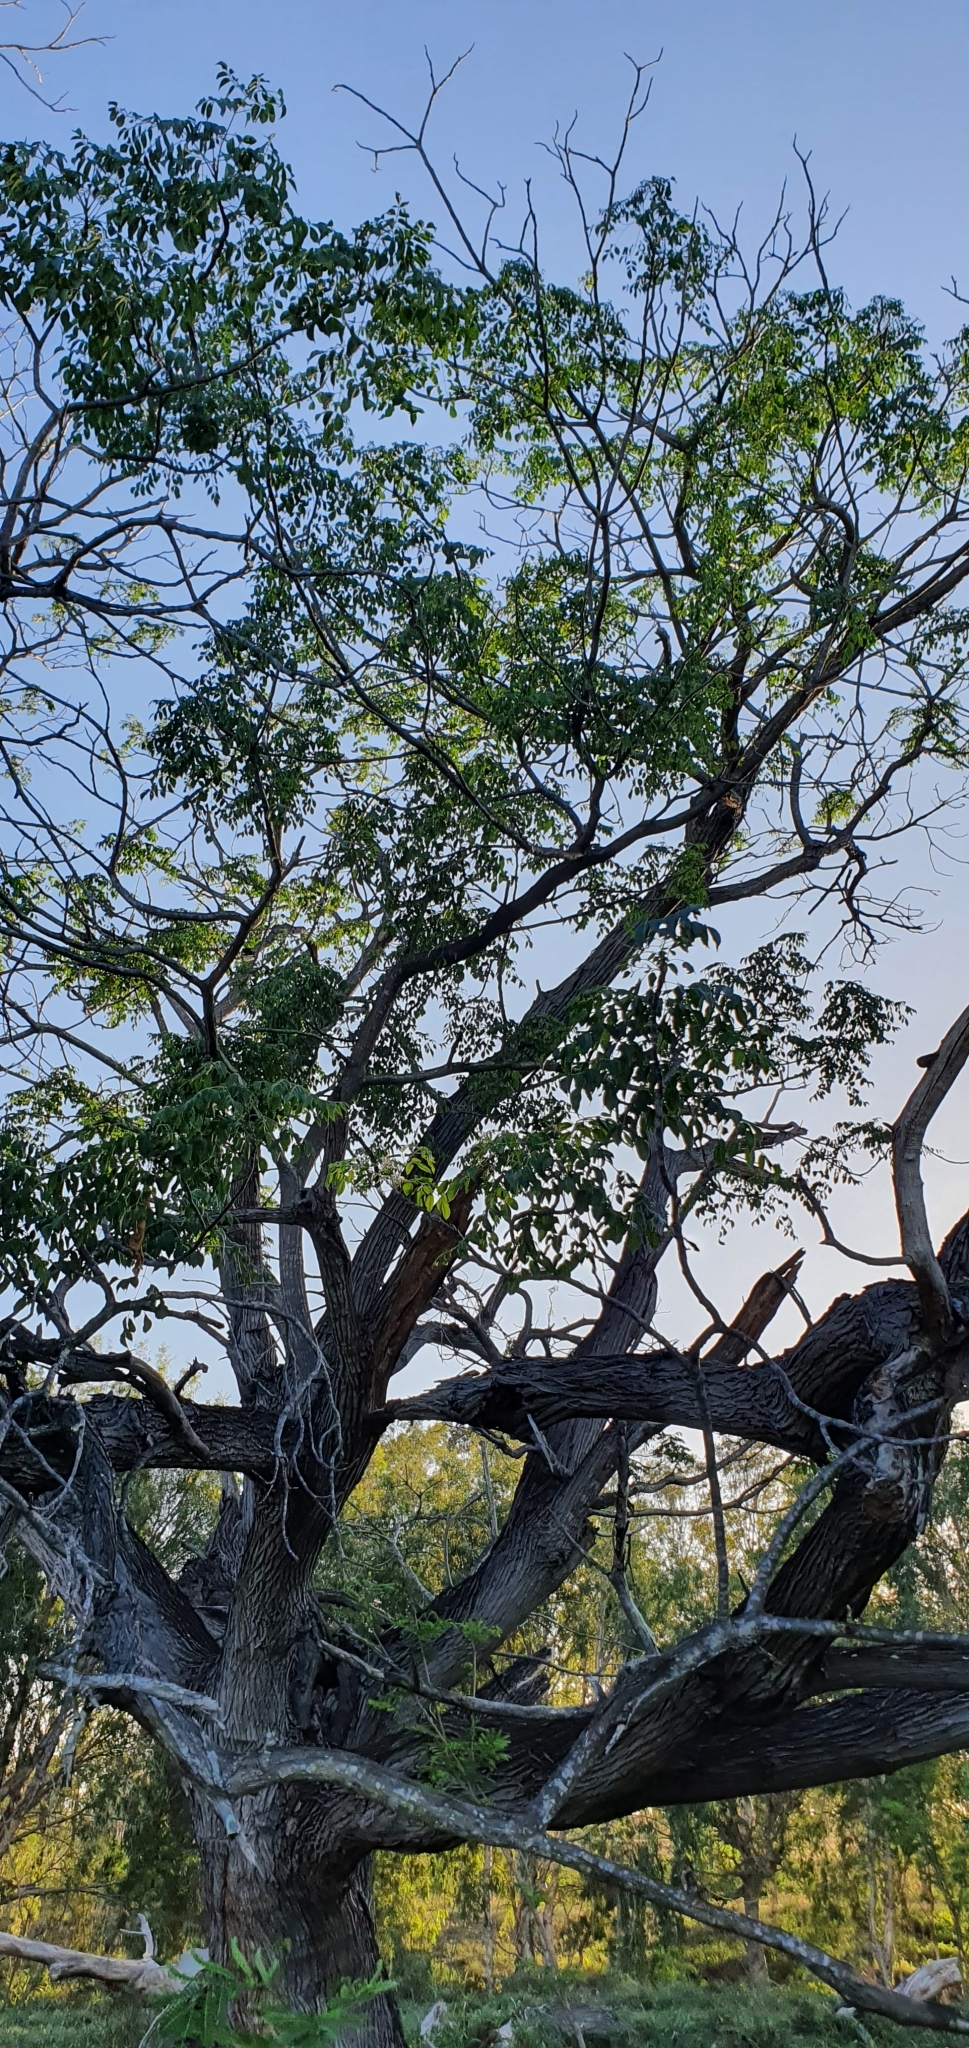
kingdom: Plantae
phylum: Tracheophyta
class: Magnoliopsida
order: Sapindales
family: Meliaceae
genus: Melia
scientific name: Melia azedarach
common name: Chinaberrytree
